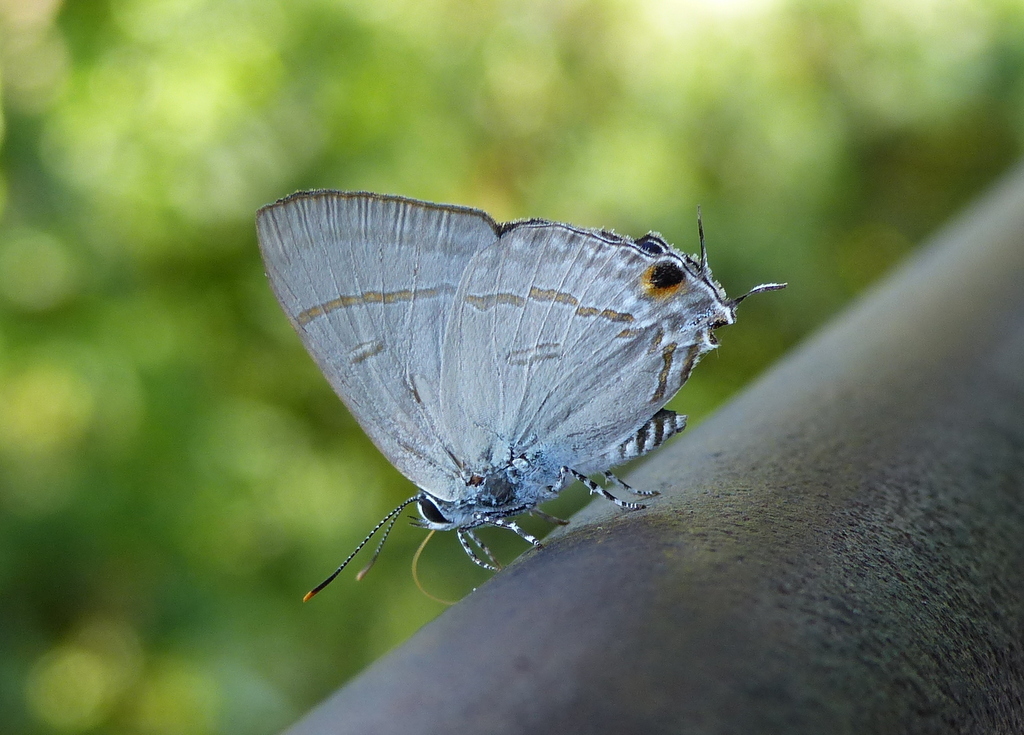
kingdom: Animalia
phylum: Arthropoda
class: Insecta
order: Lepidoptera
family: Lycaenidae
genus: Hypolycaena
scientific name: Hypolycaena erylus
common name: Common tit
